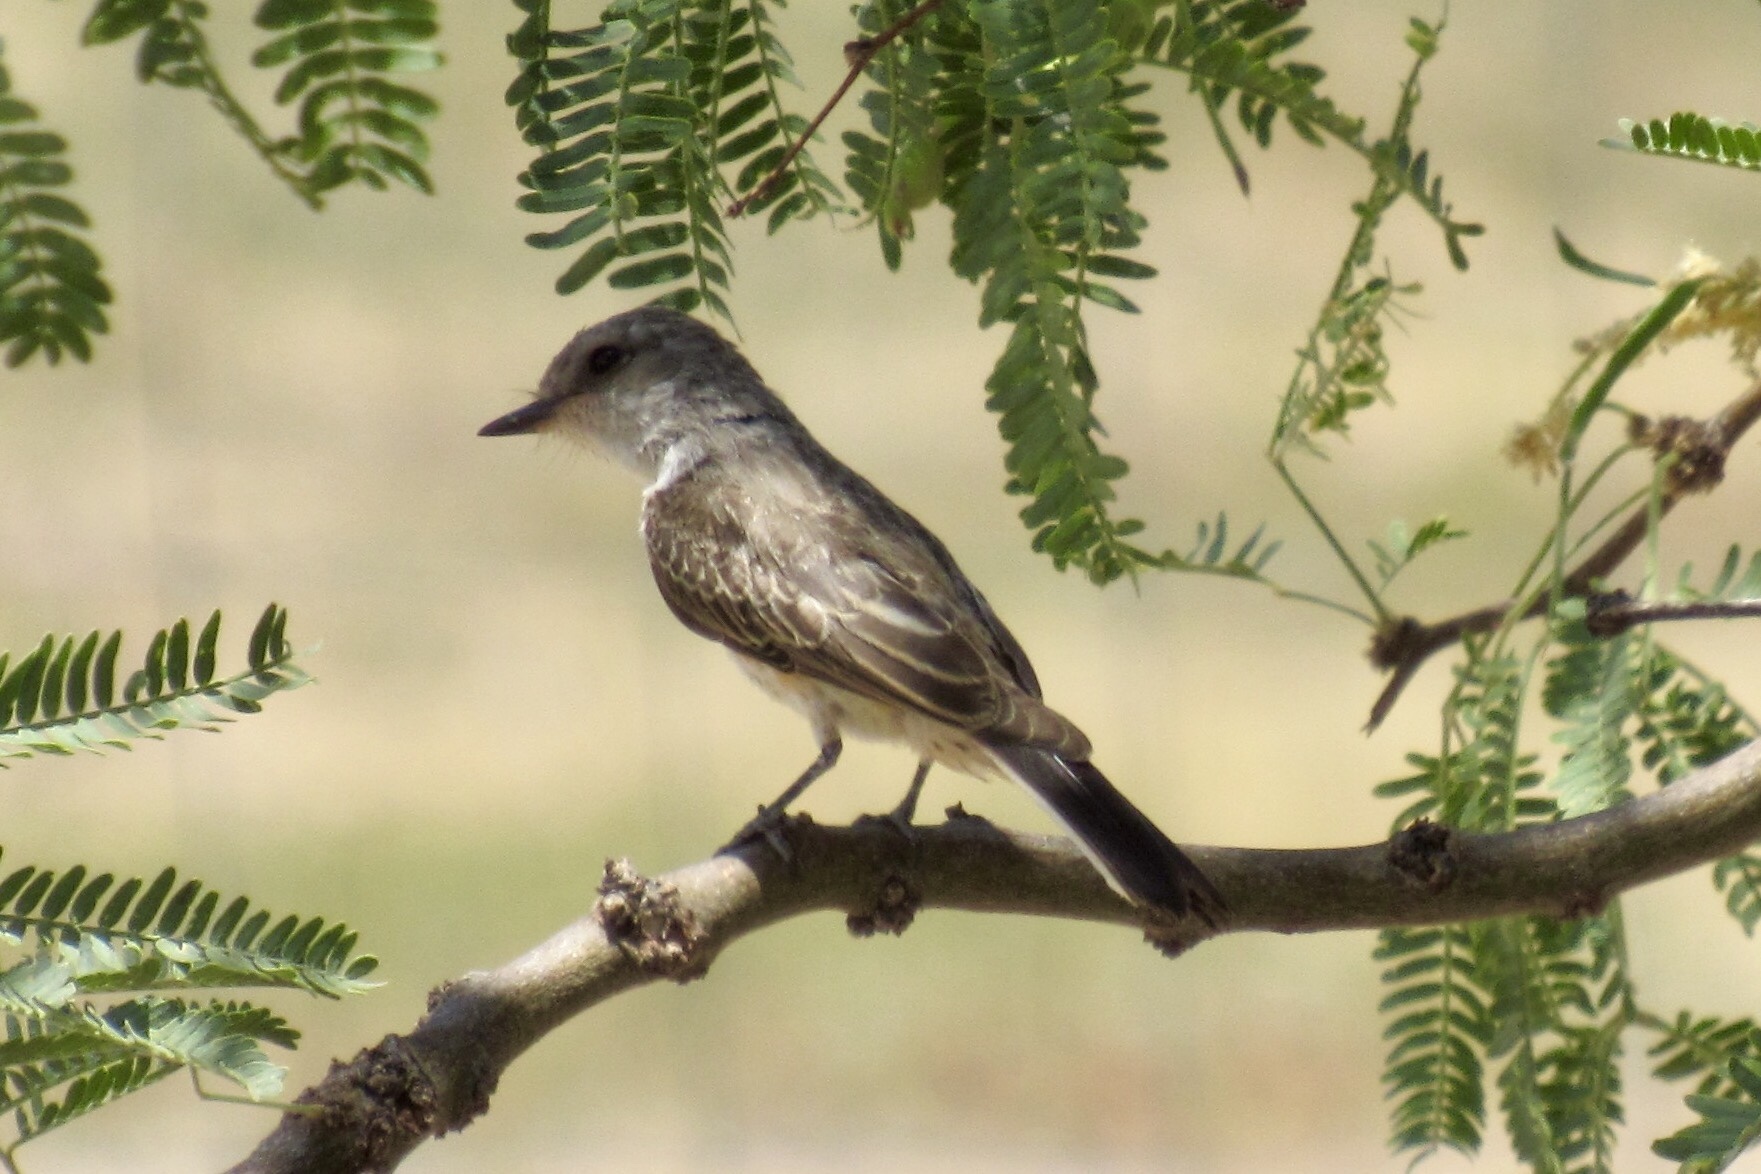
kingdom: Animalia
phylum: Chordata
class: Aves
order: Passeriformes
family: Tyrannidae
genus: Pyrocephalus
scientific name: Pyrocephalus rubinus
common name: Vermilion flycatcher
